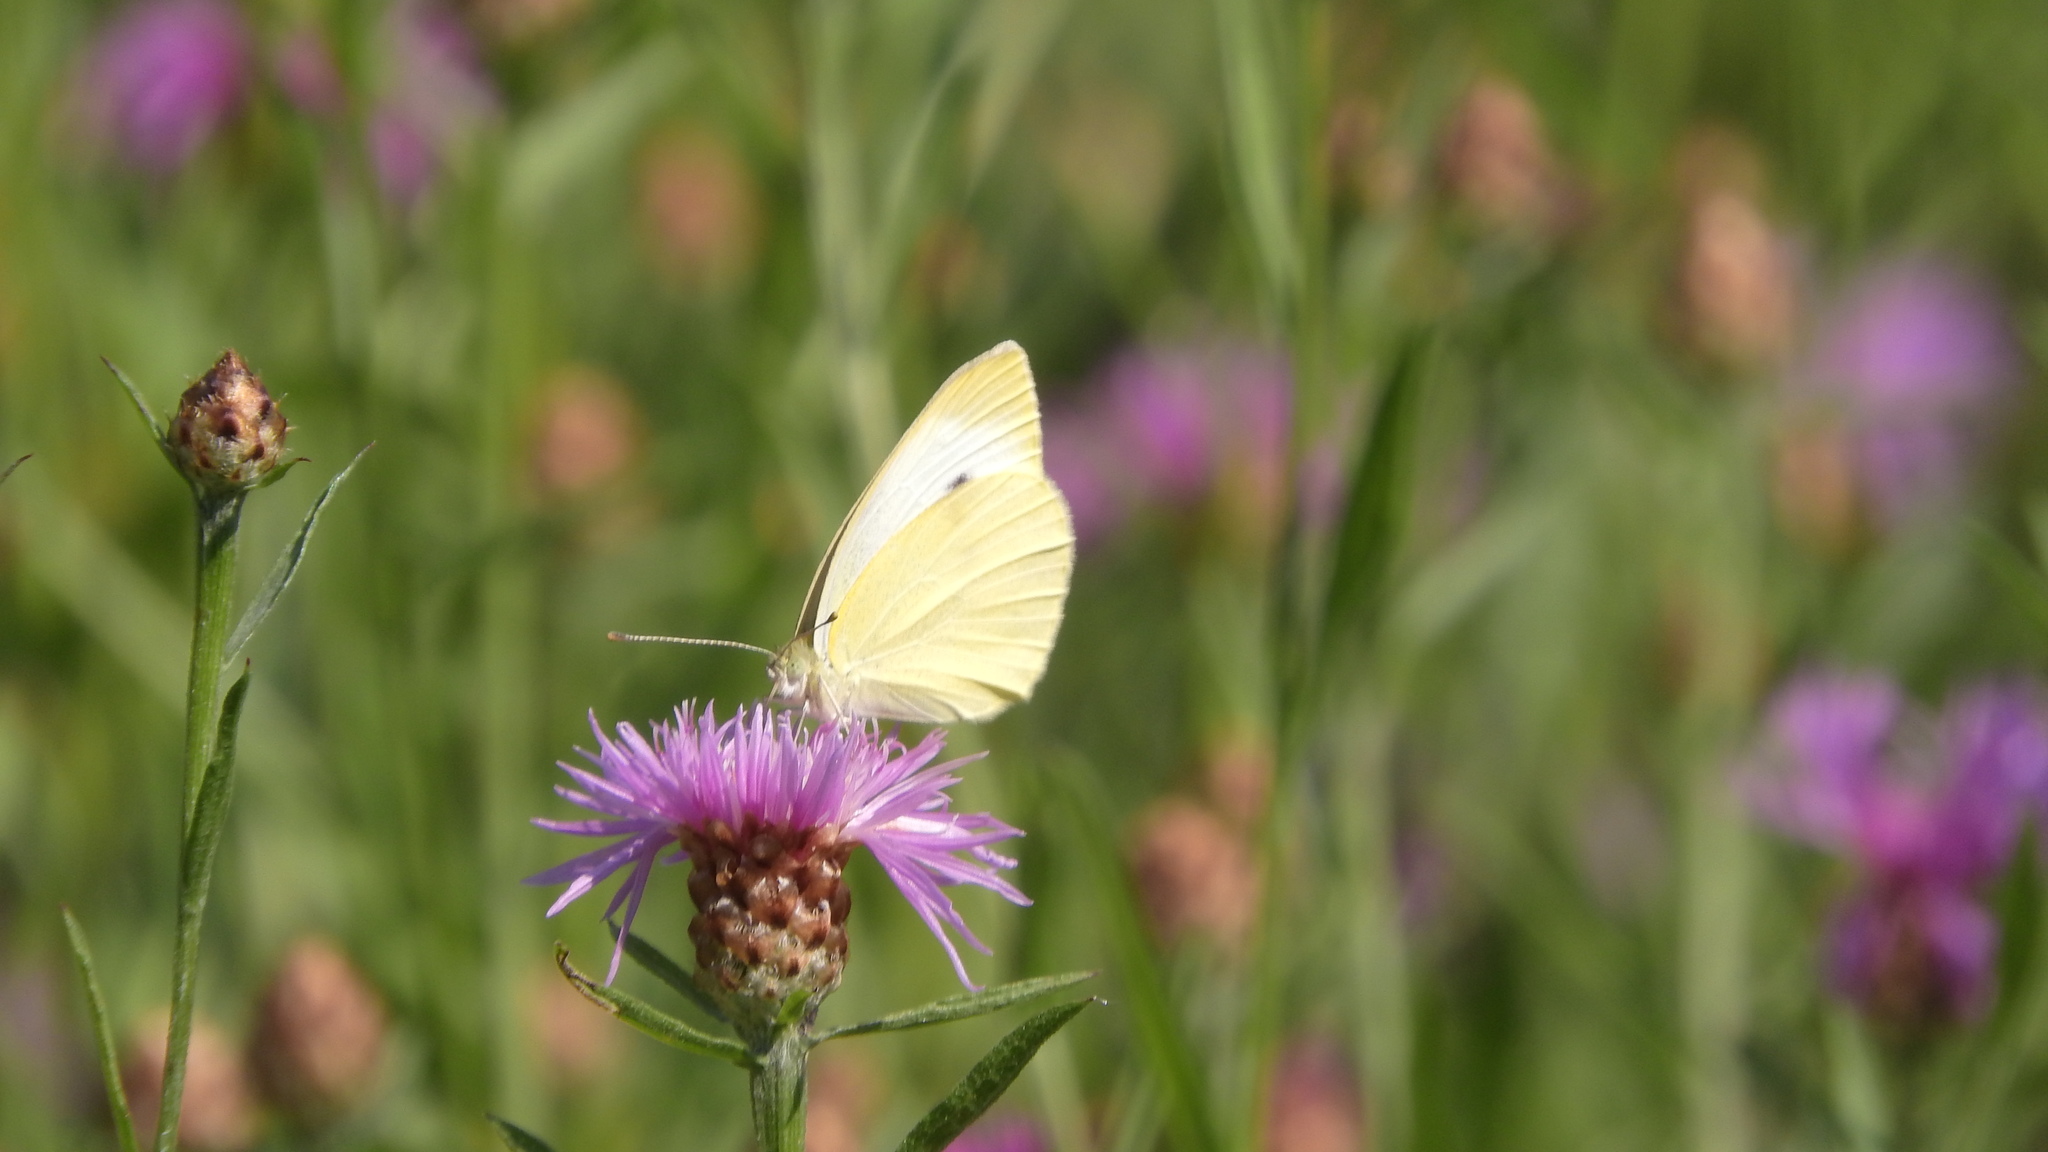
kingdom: Animalia
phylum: Arthropoda
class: Insecta
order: Lepidoptera
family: Pieridae
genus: Pieris
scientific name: Pieris rapae
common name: Small white
